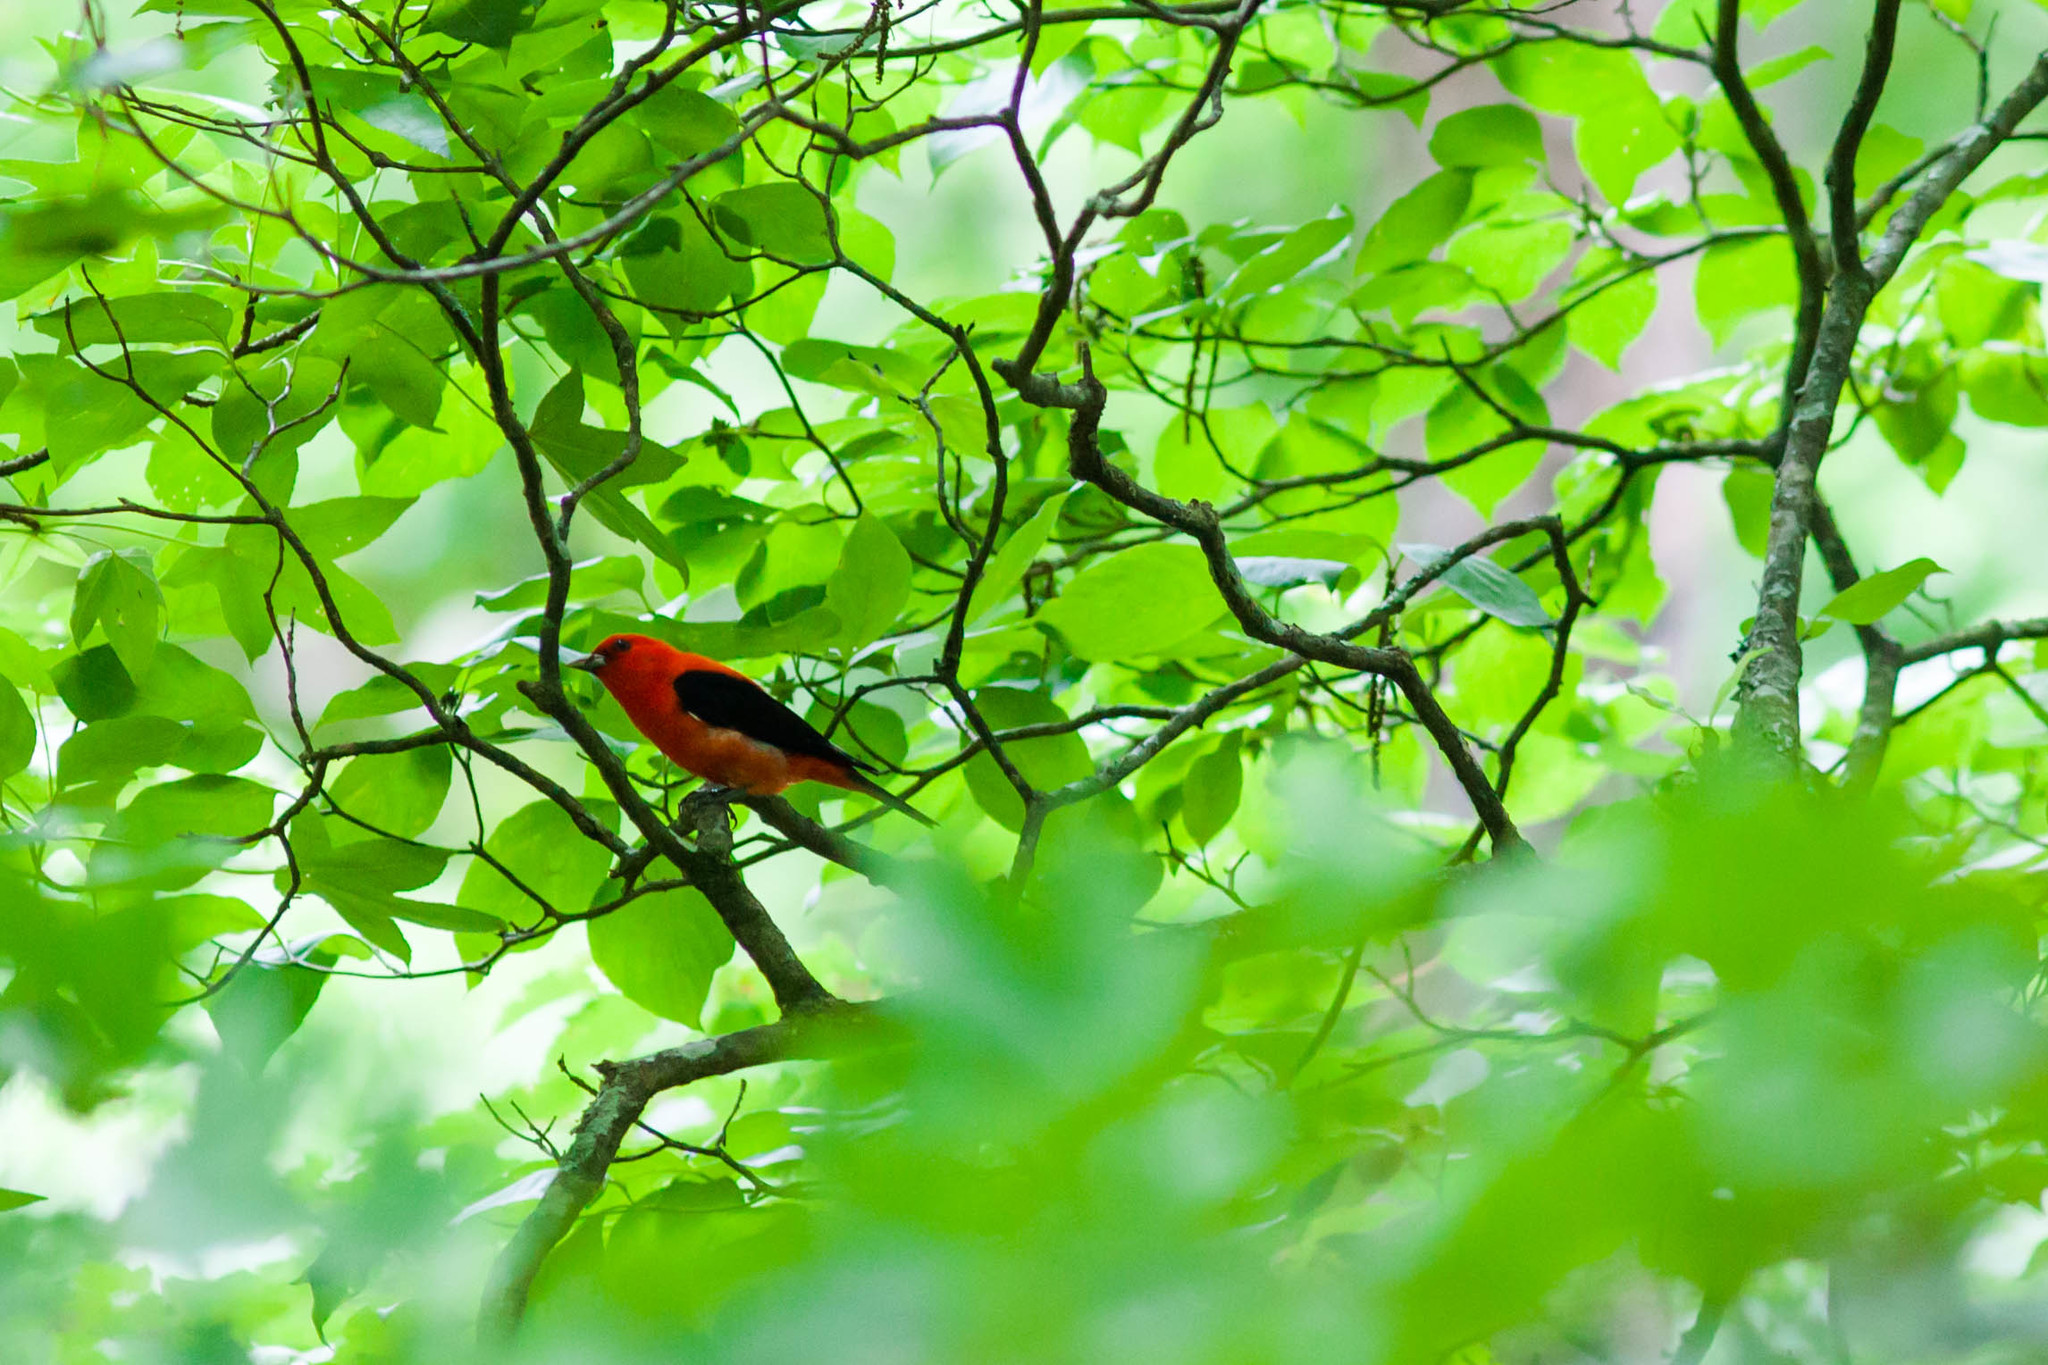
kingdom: Animalia
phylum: Chordata
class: Aves
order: Passeriformes
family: Cardinalidae
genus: Piranga
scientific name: Piranga olivacea
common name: Scarlet tanager
